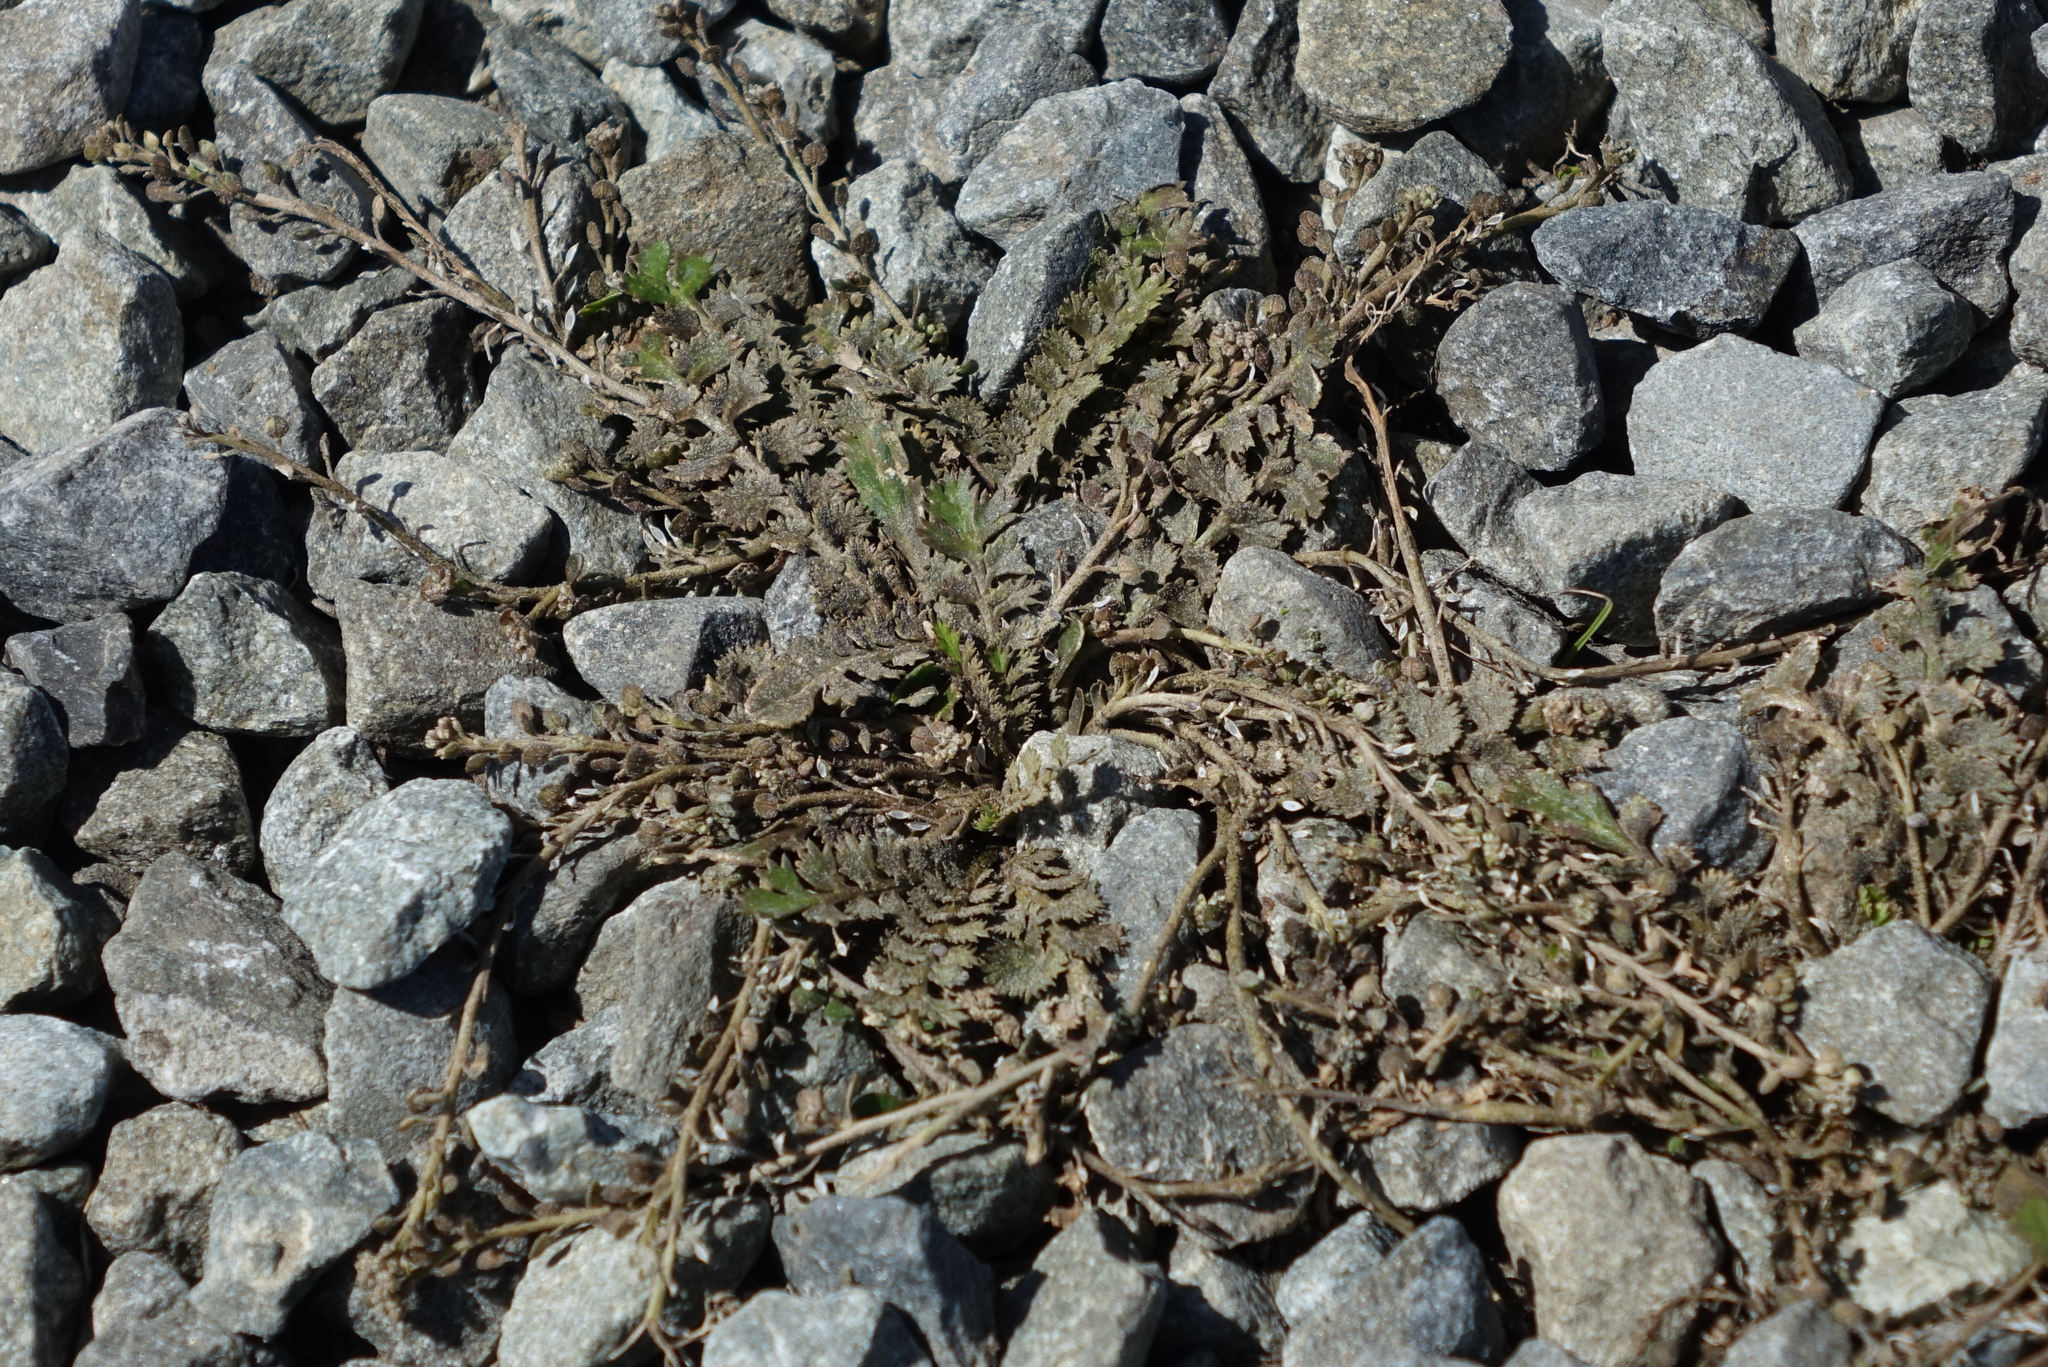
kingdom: Plantae
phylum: Tracheophyta
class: Magnoliopsida
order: Brassicales
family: Brassicaceae
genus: Lepidium
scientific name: Lepidium tenuicaule
